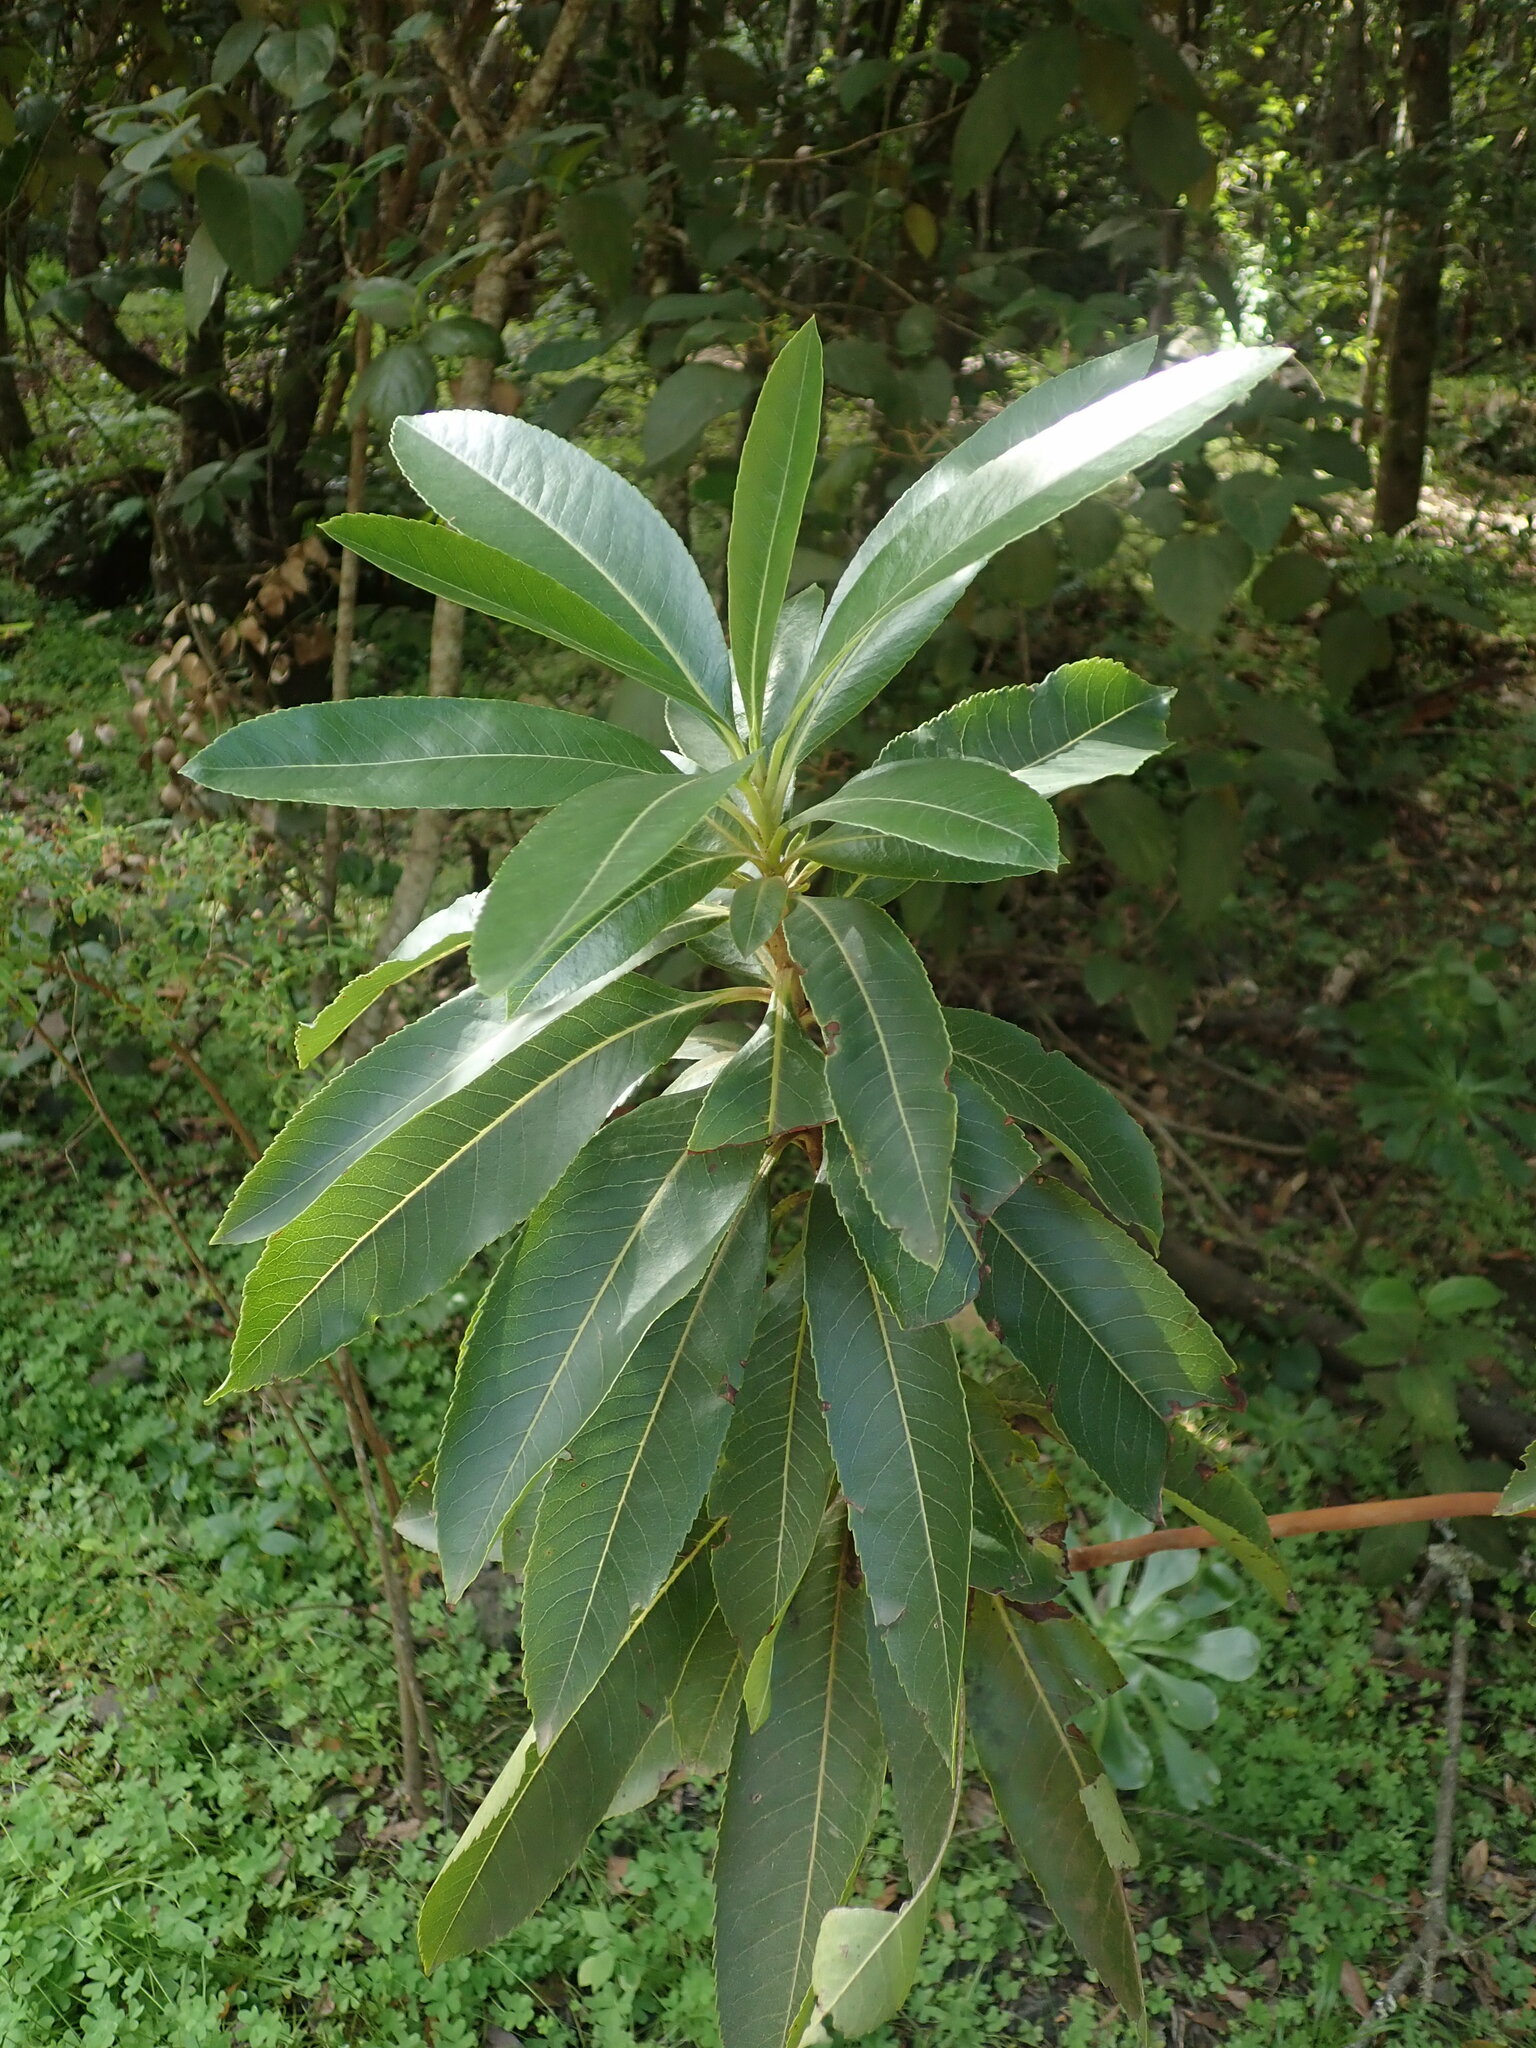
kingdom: Plantae
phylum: Tracheophyta
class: Magnoliopsida
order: Ericales
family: Ericaceae
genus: Arbutus
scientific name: Arbutus canariensis
